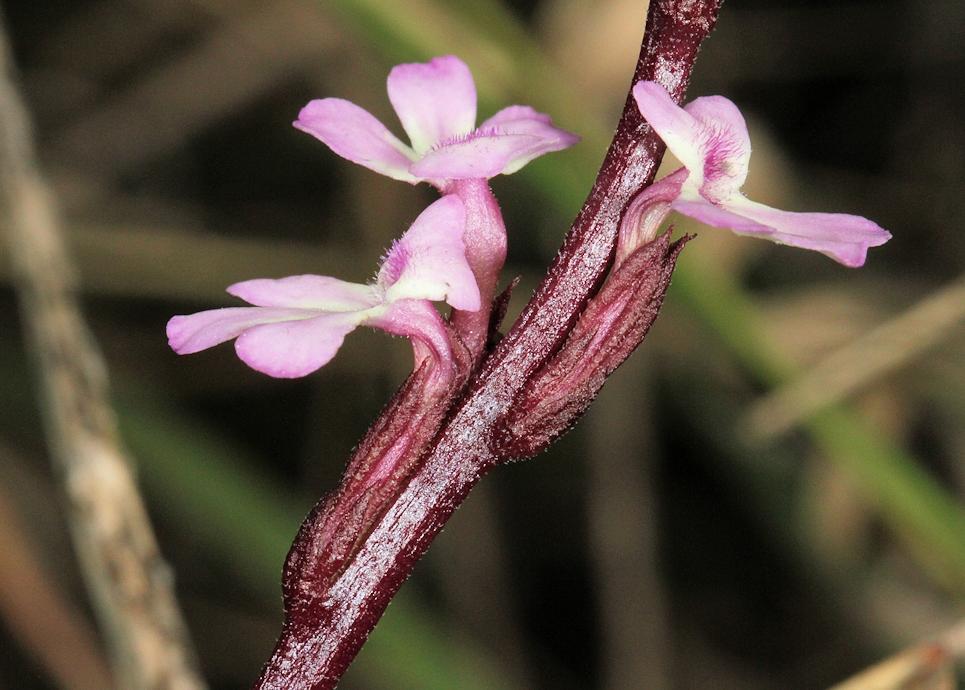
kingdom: Plantae
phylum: Tracheophyta
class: Magnoliopsida
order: Lamiales
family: Orobanchaceae
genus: Striga
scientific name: Striga gesnerioides
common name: Cowpea witchweed
